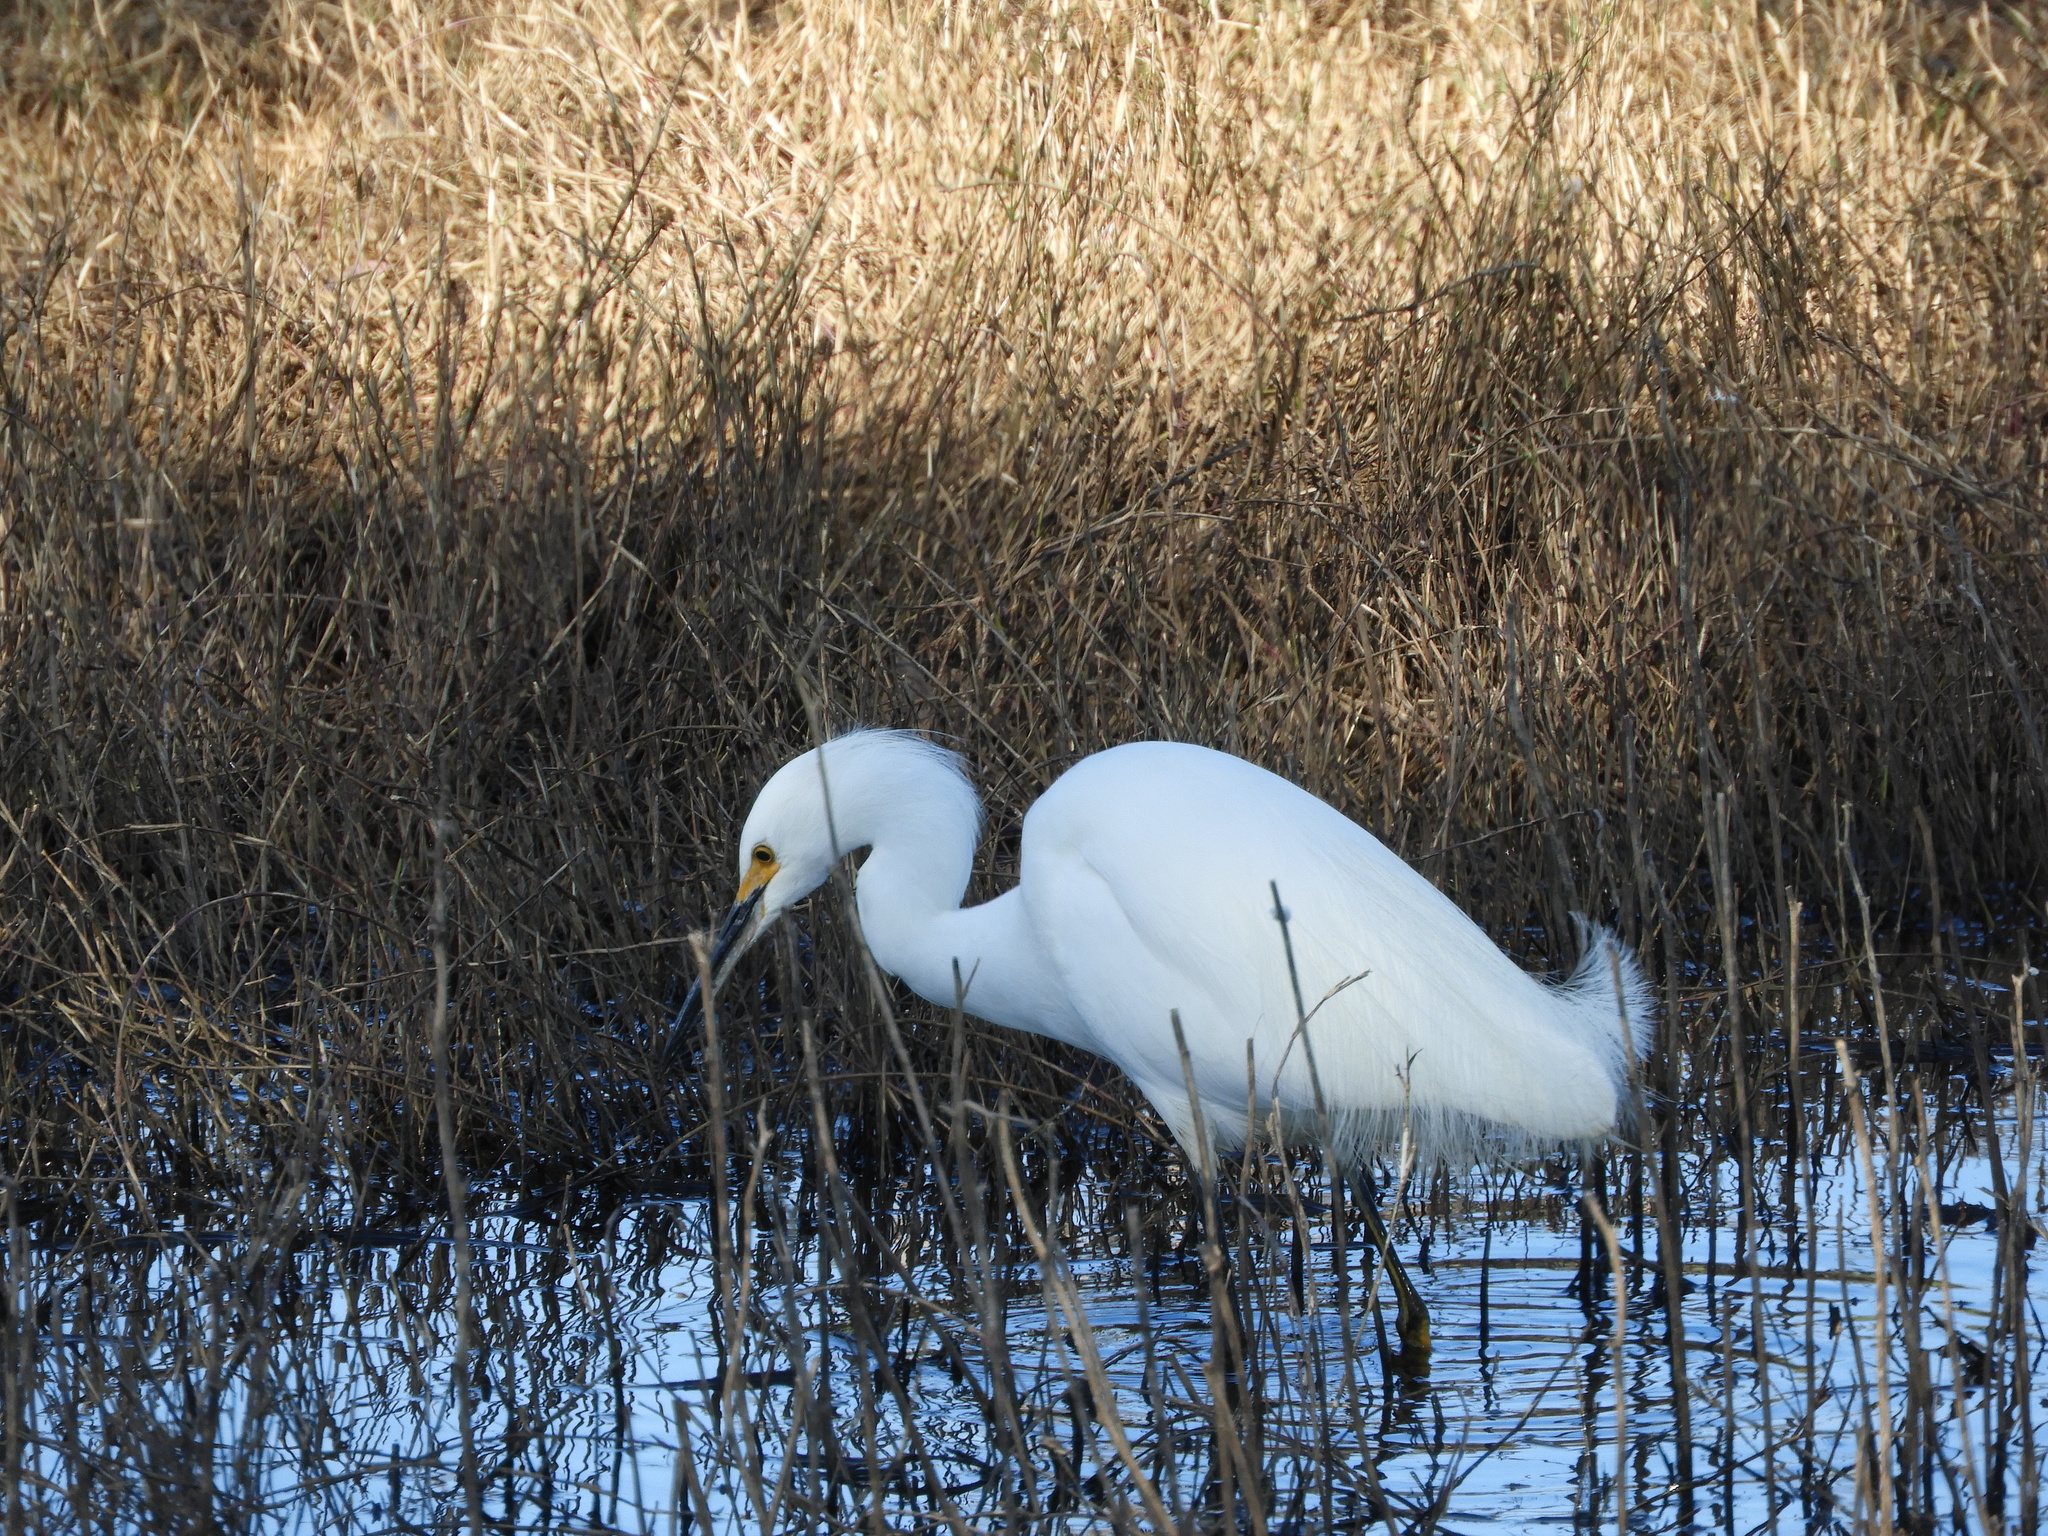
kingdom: Animalia
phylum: Chordata
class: Aves
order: Pelecaniformes
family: Ardeidae
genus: Egretta
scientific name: Egretta thula
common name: Snowy egret
